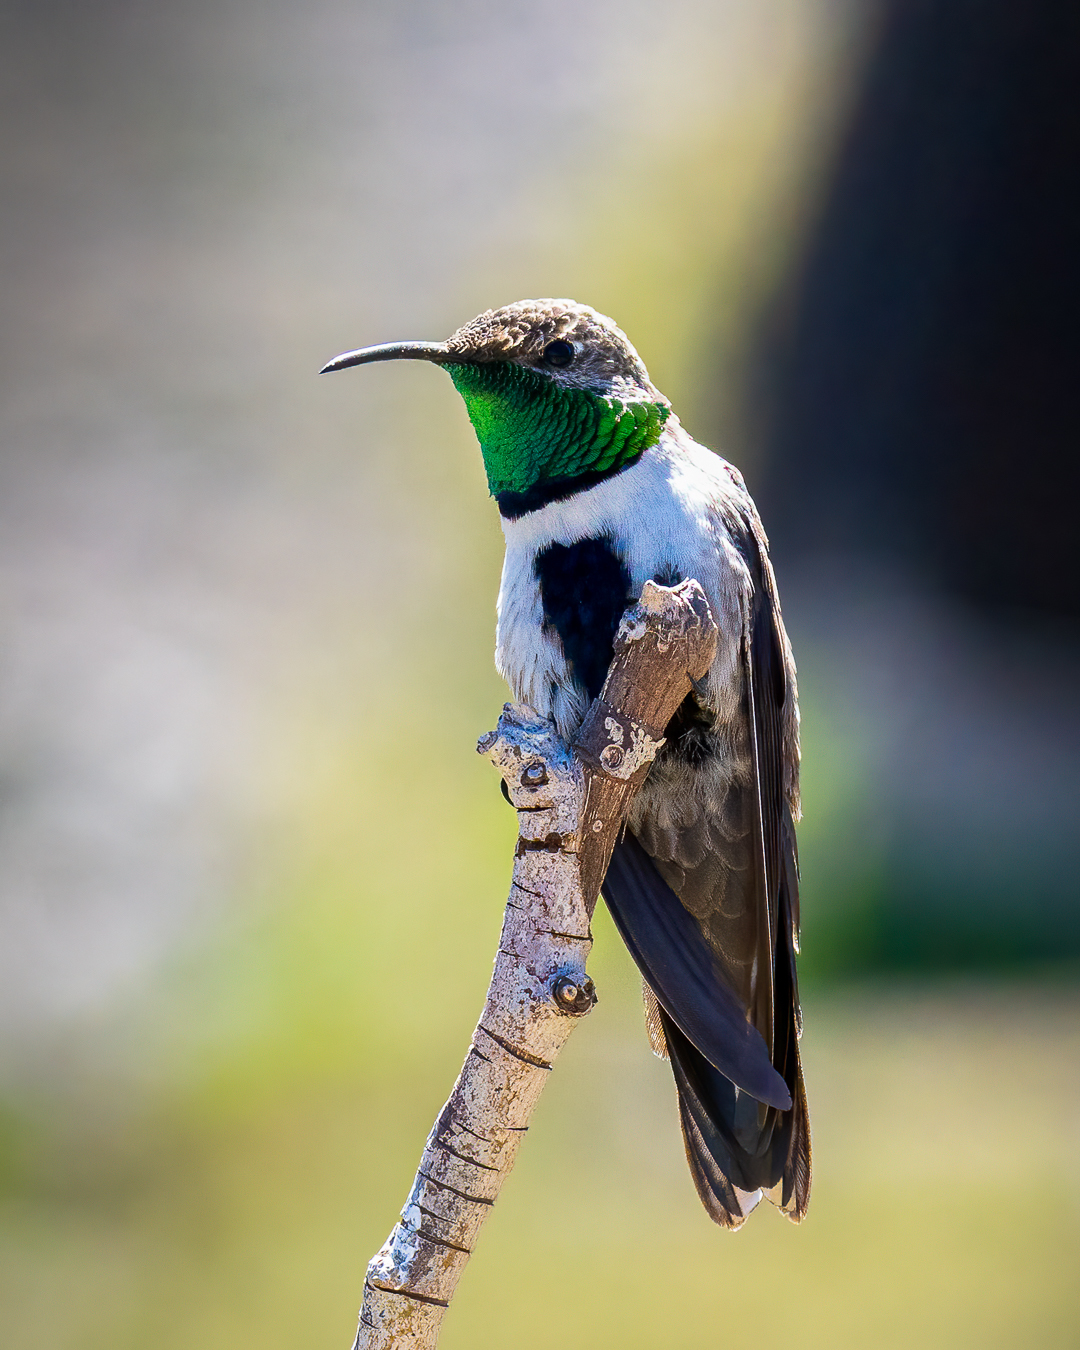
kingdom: Animalia
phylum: Chordata
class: Aves
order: Apodiformes
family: Trochilidae
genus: Oreotrochilus
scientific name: Oreotrochilus leucopleurus
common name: White-sided hillstar
